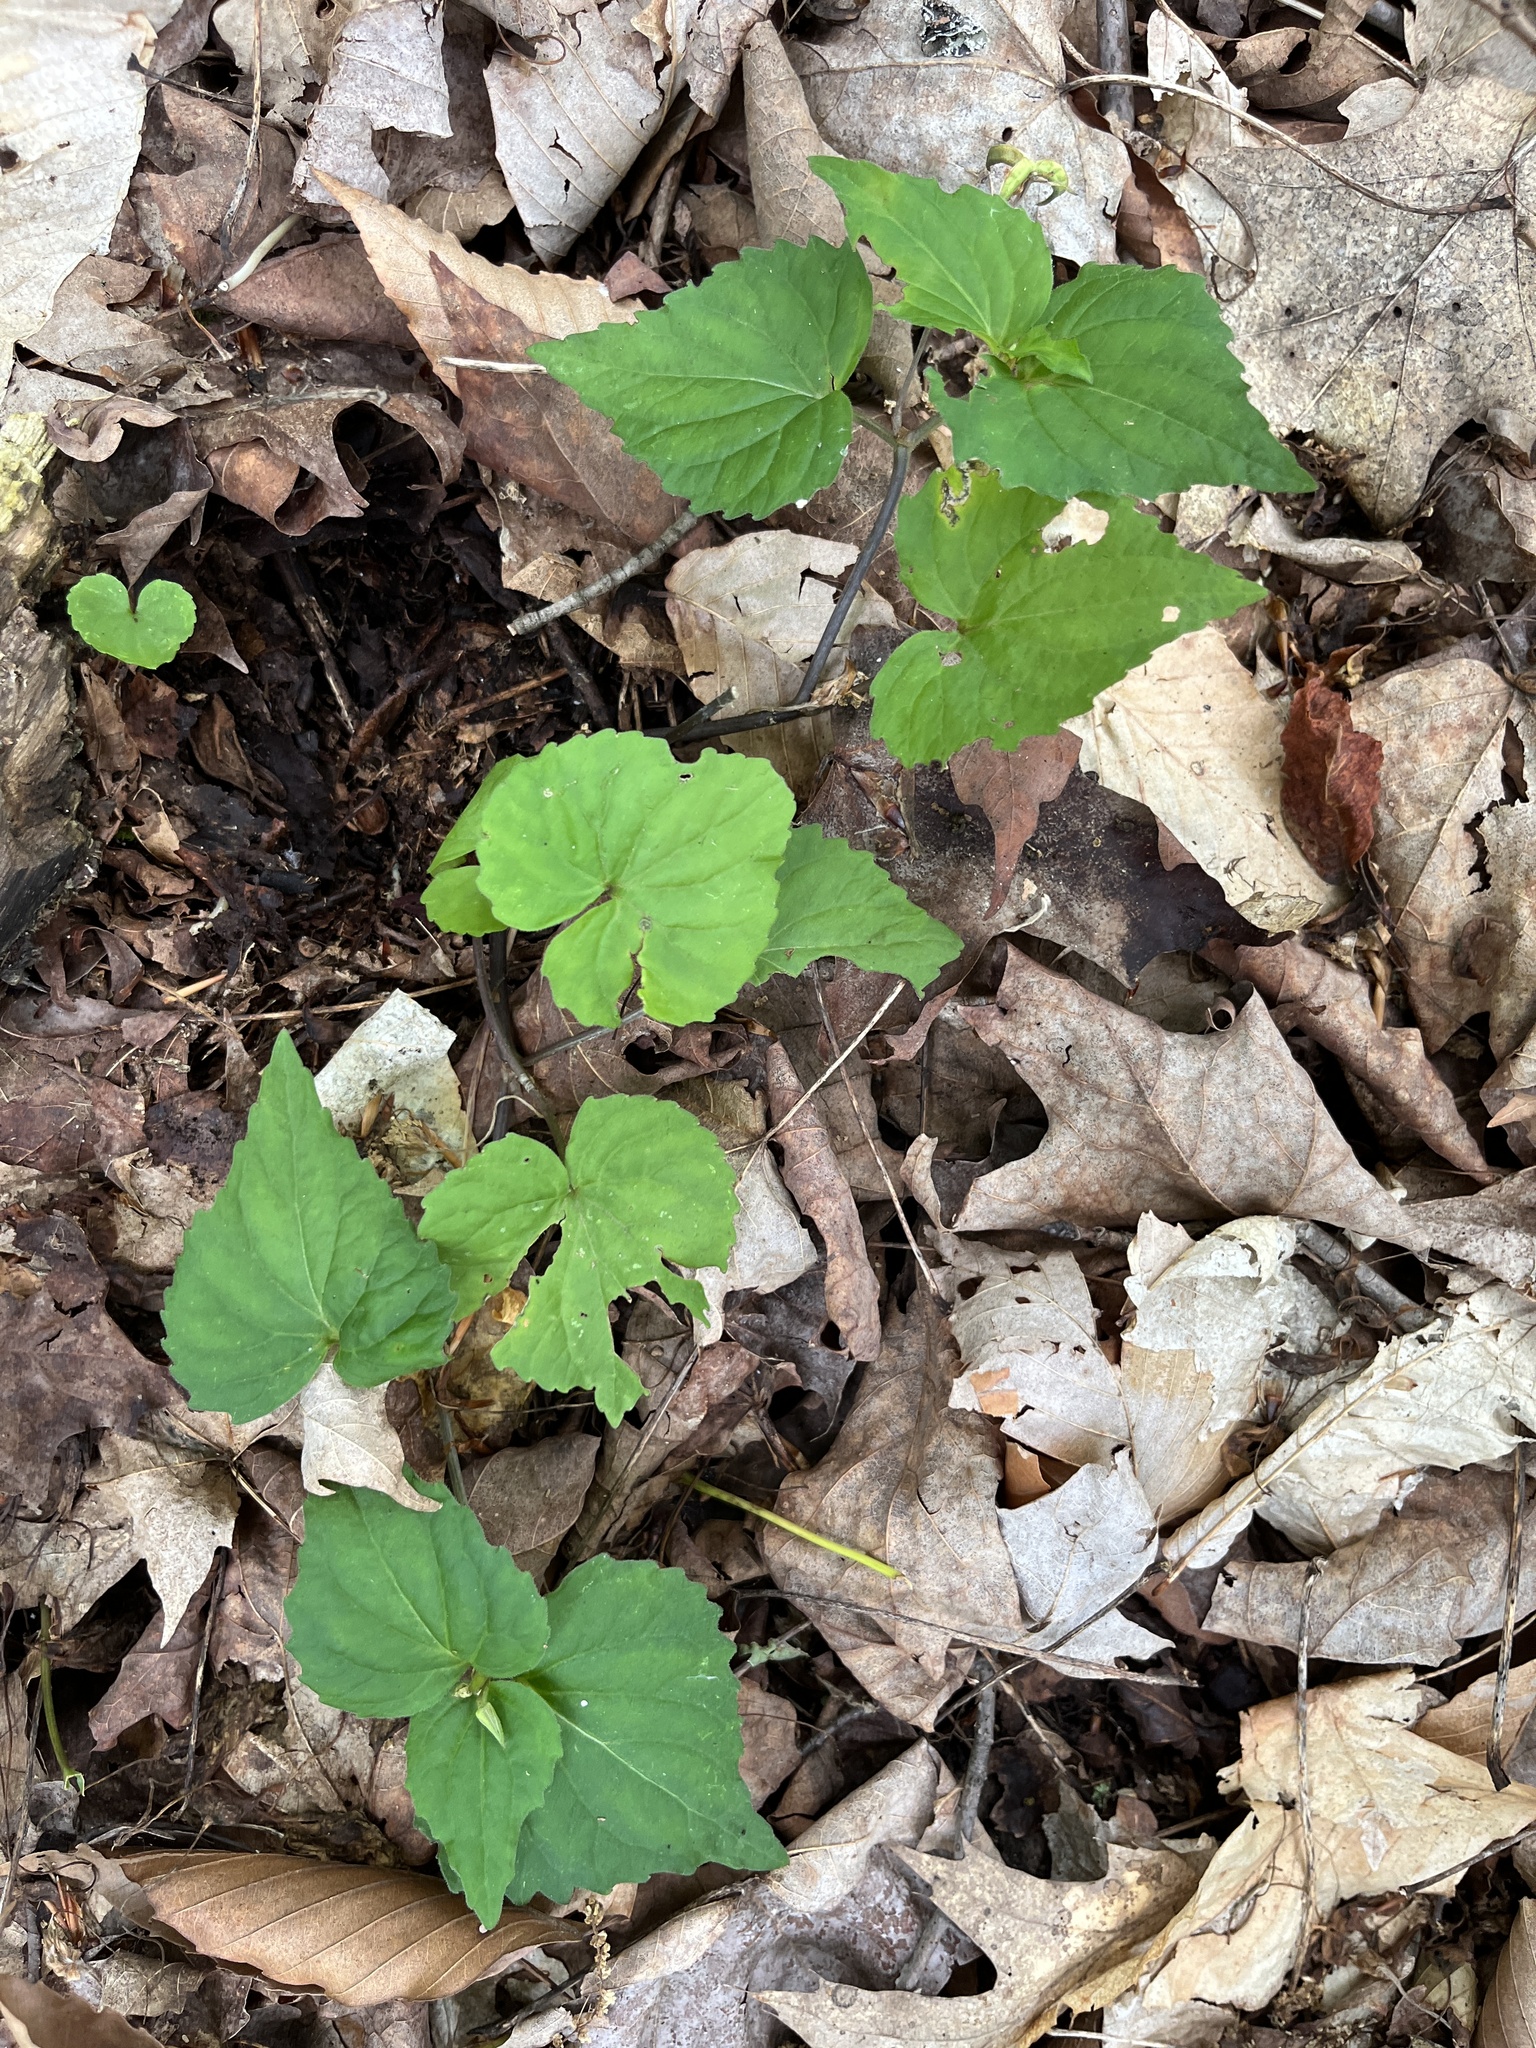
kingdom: Plantae
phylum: Tracheophyta
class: Magnoliopsida
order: Malpighiales
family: Violaceae
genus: Viola
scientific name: Viola eriocarpa
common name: Smooth yellow violet
